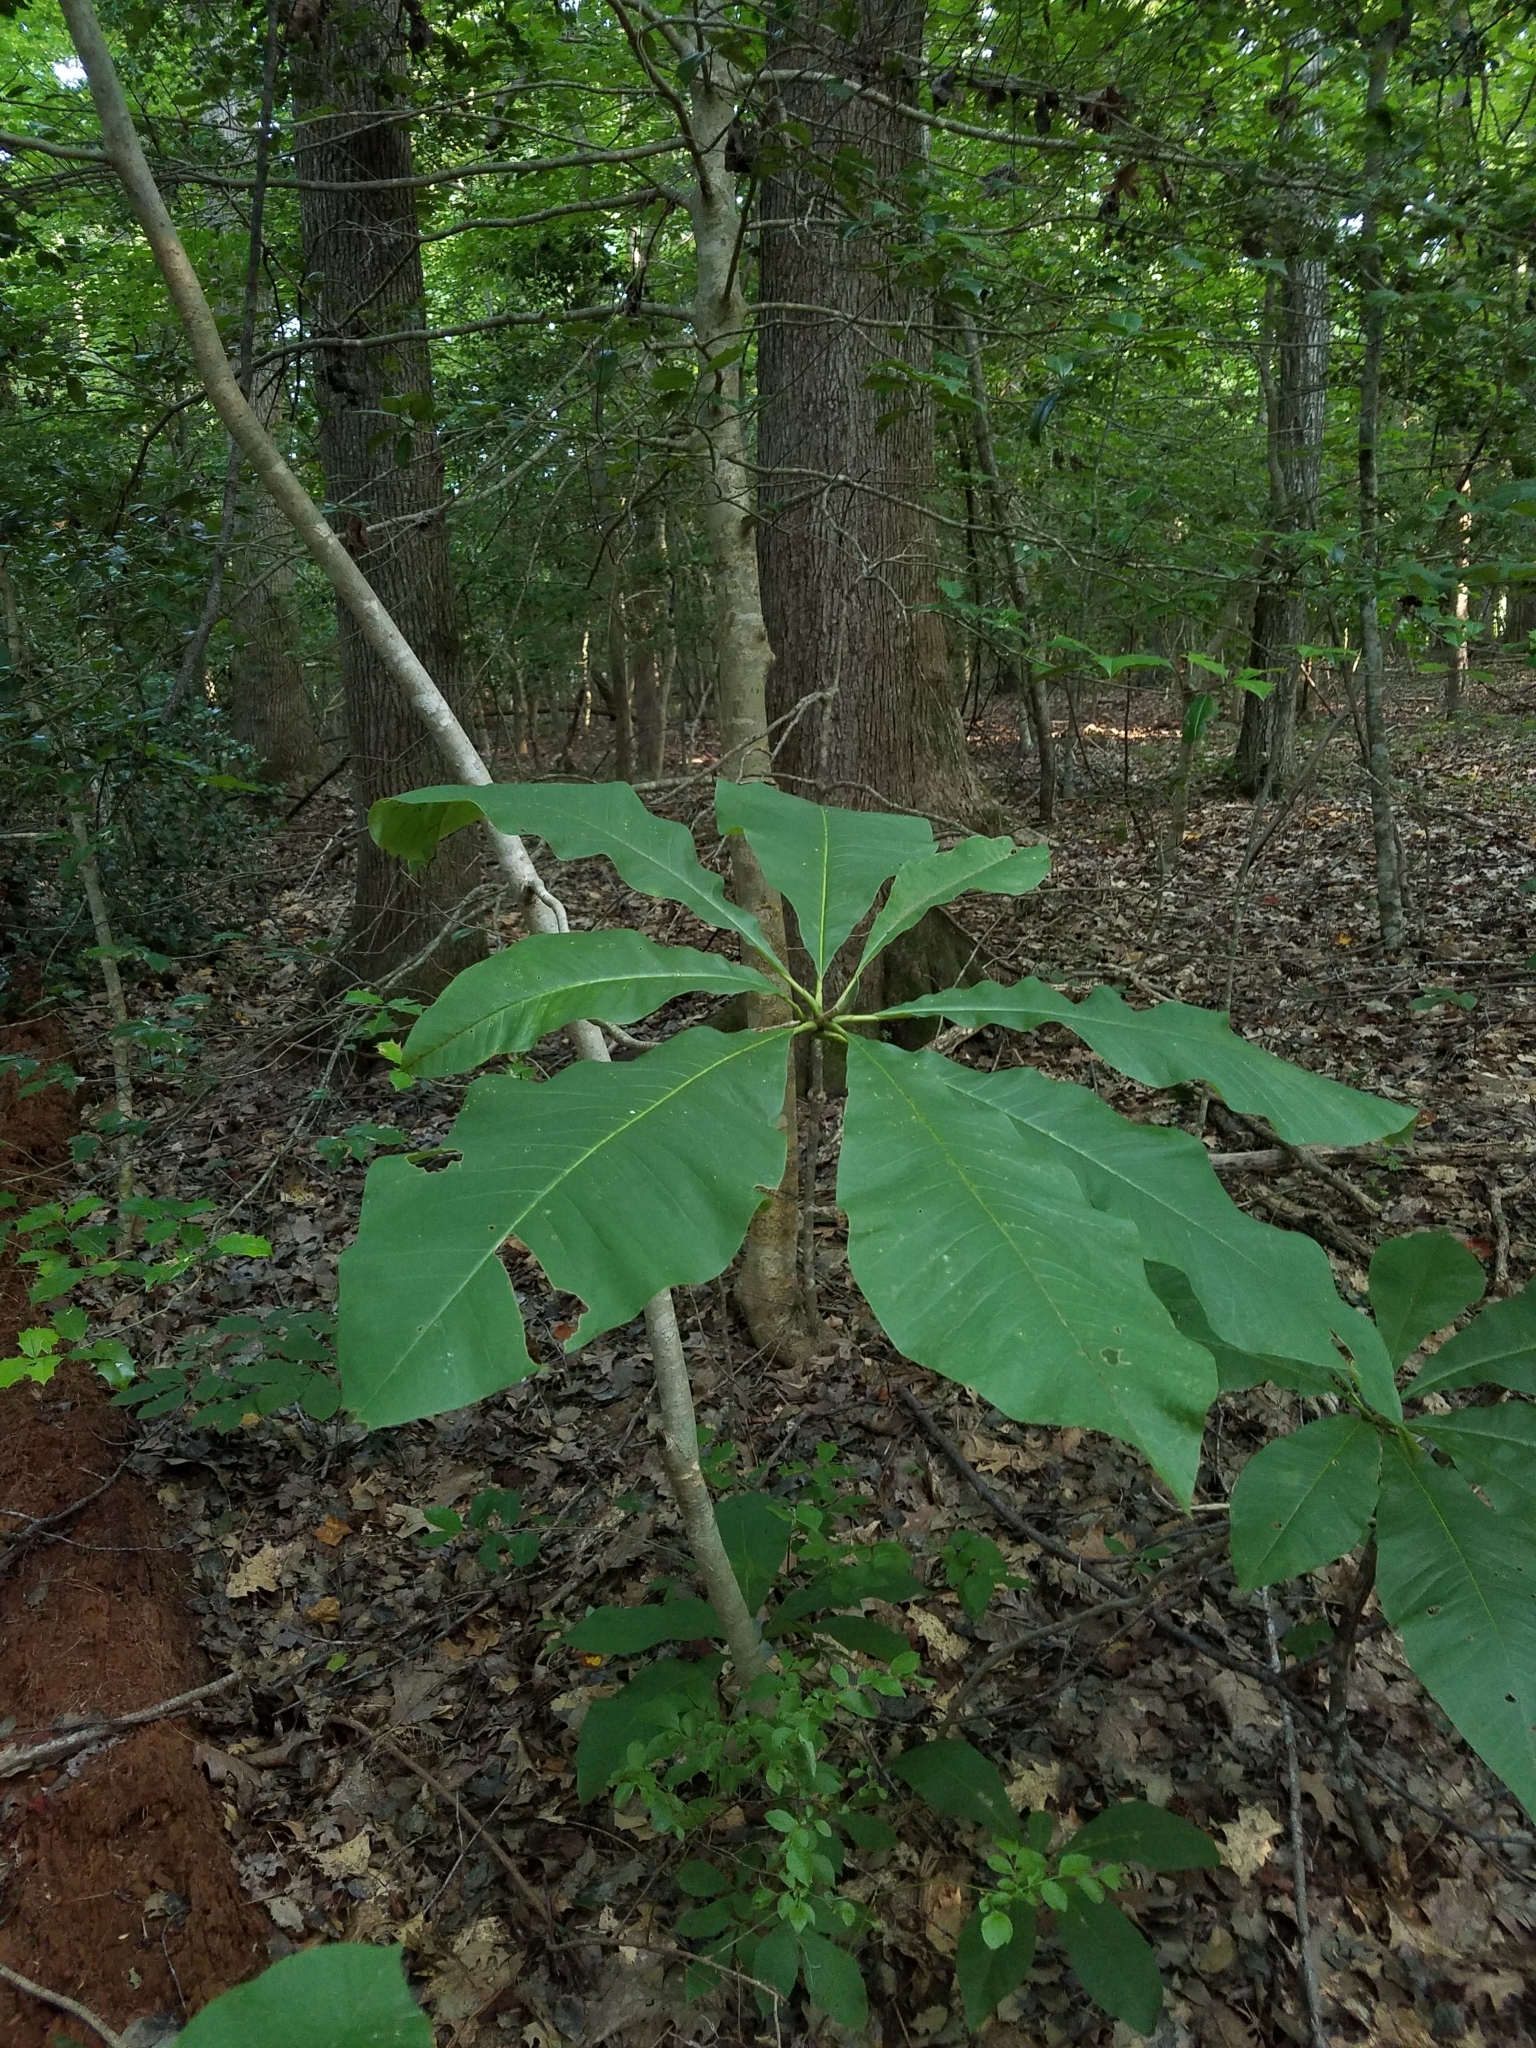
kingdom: Plantae
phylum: Tracheophyta
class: Magnoliopsida
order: Magnoliales
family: Magnoliaceae
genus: Magnolia
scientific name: Magnolia tripetala
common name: Umbrella magnolia
